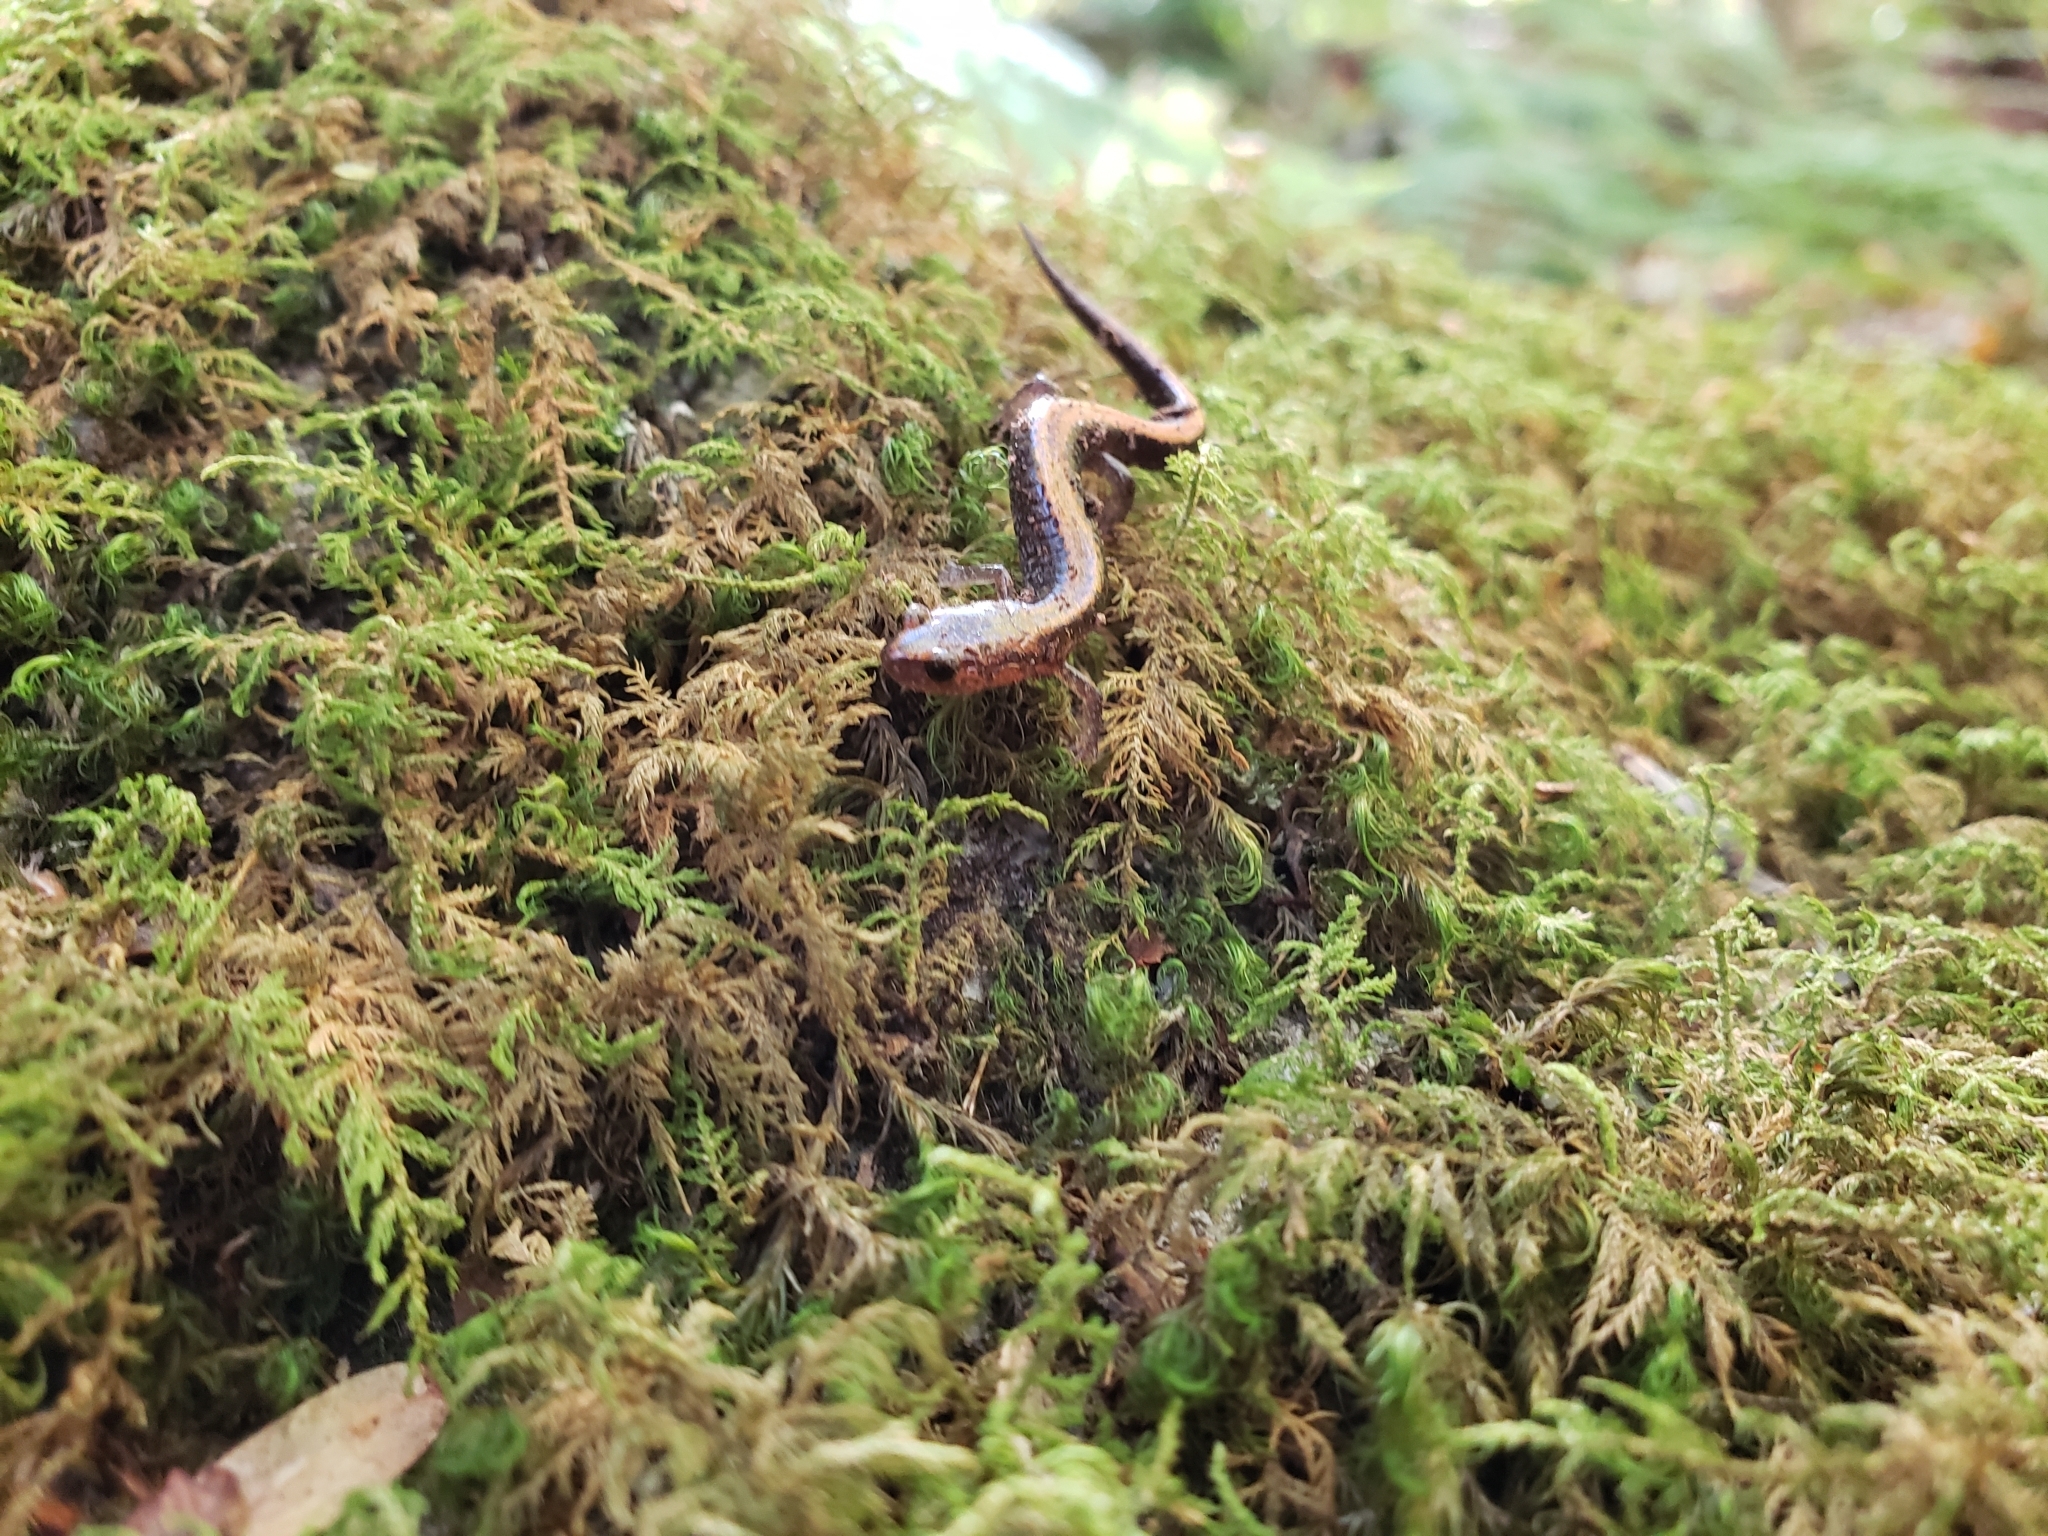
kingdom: Animalia
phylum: Chordata
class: Amphibia
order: Caudata
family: Plethodontidae
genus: Plethodon
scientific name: Plethodon cinereus
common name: Redback salamander
